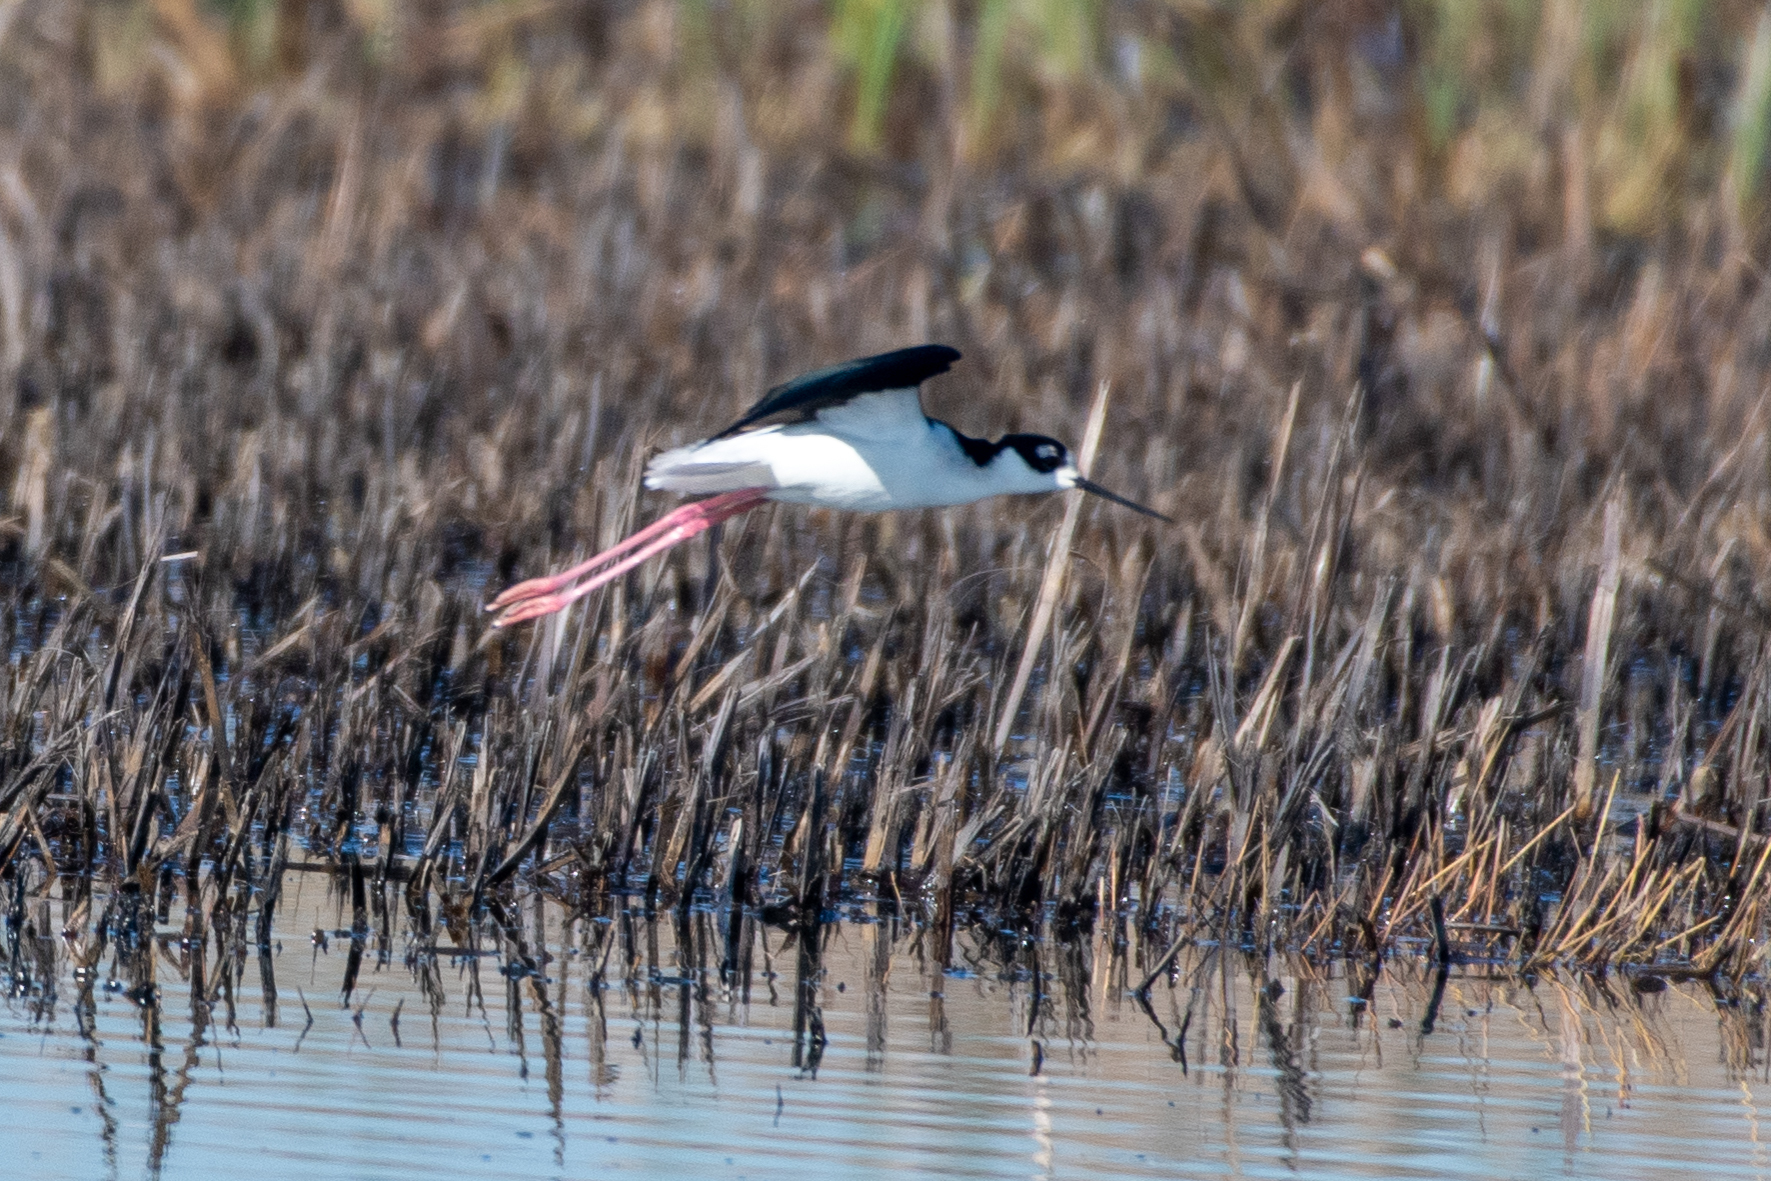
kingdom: Animalia
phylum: Chordata
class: Aves
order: Charadriiformes
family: Recurvirostridae
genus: Himantopus
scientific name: Himantopus mexicanus
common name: Black-necked stilt
